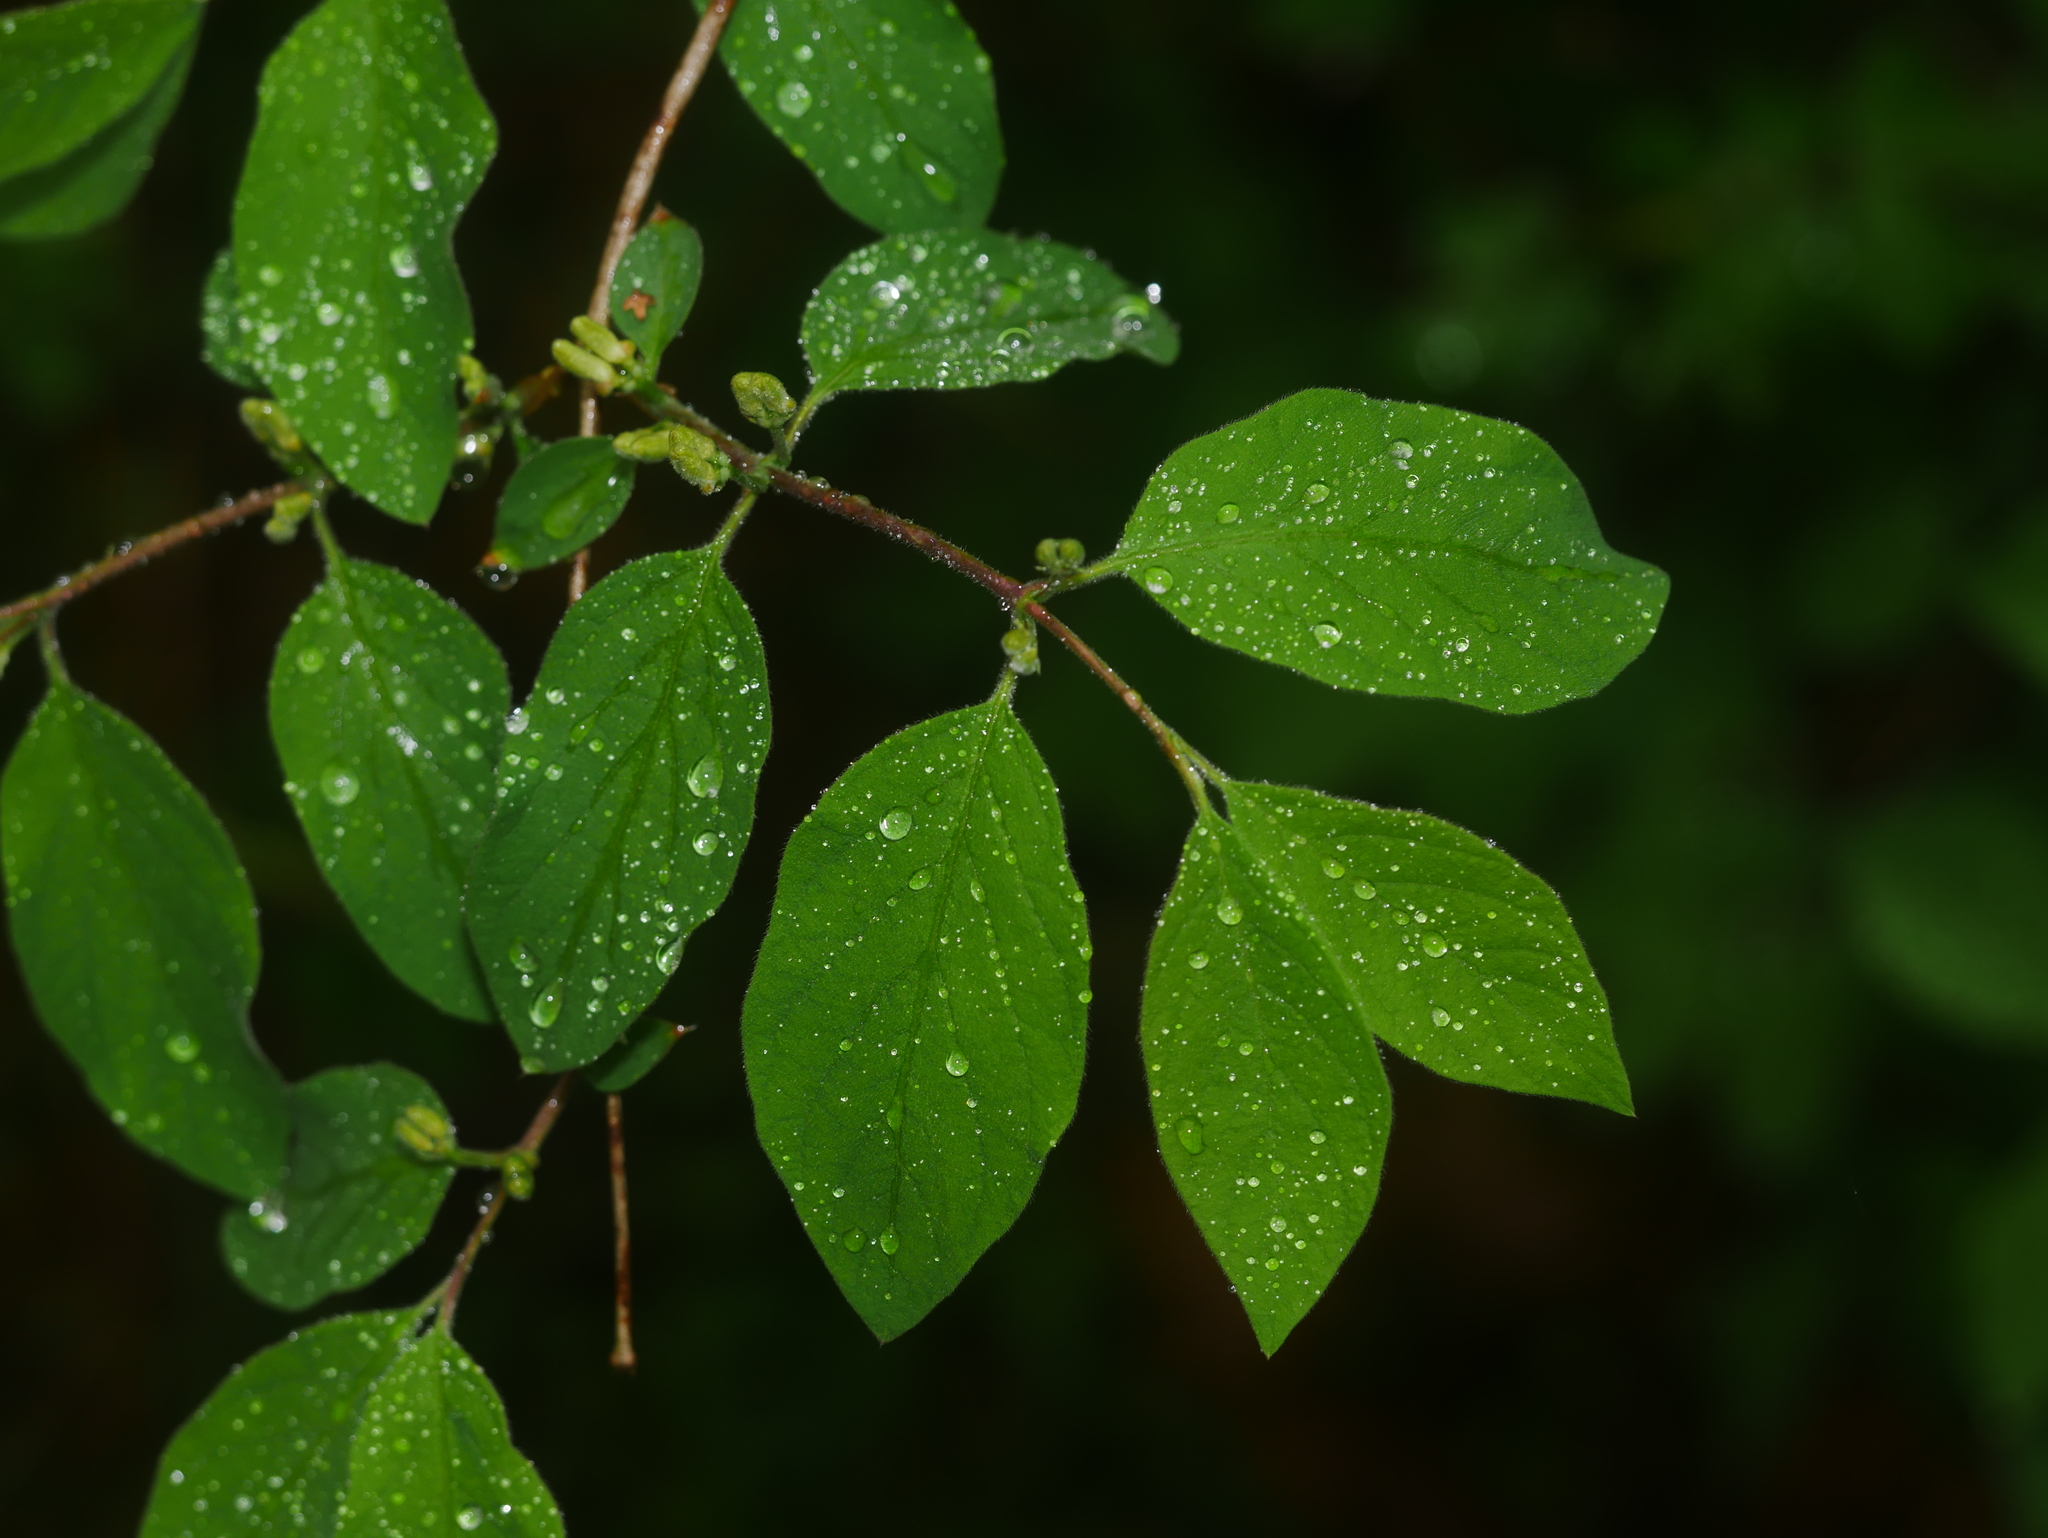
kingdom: Plantae
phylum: Tracheophyta
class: Magnoliopsida
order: Dipsacales
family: Caprifoliaceae
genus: Lonicera
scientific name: Lonicera xylosteum
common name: Fly honeysuckle
